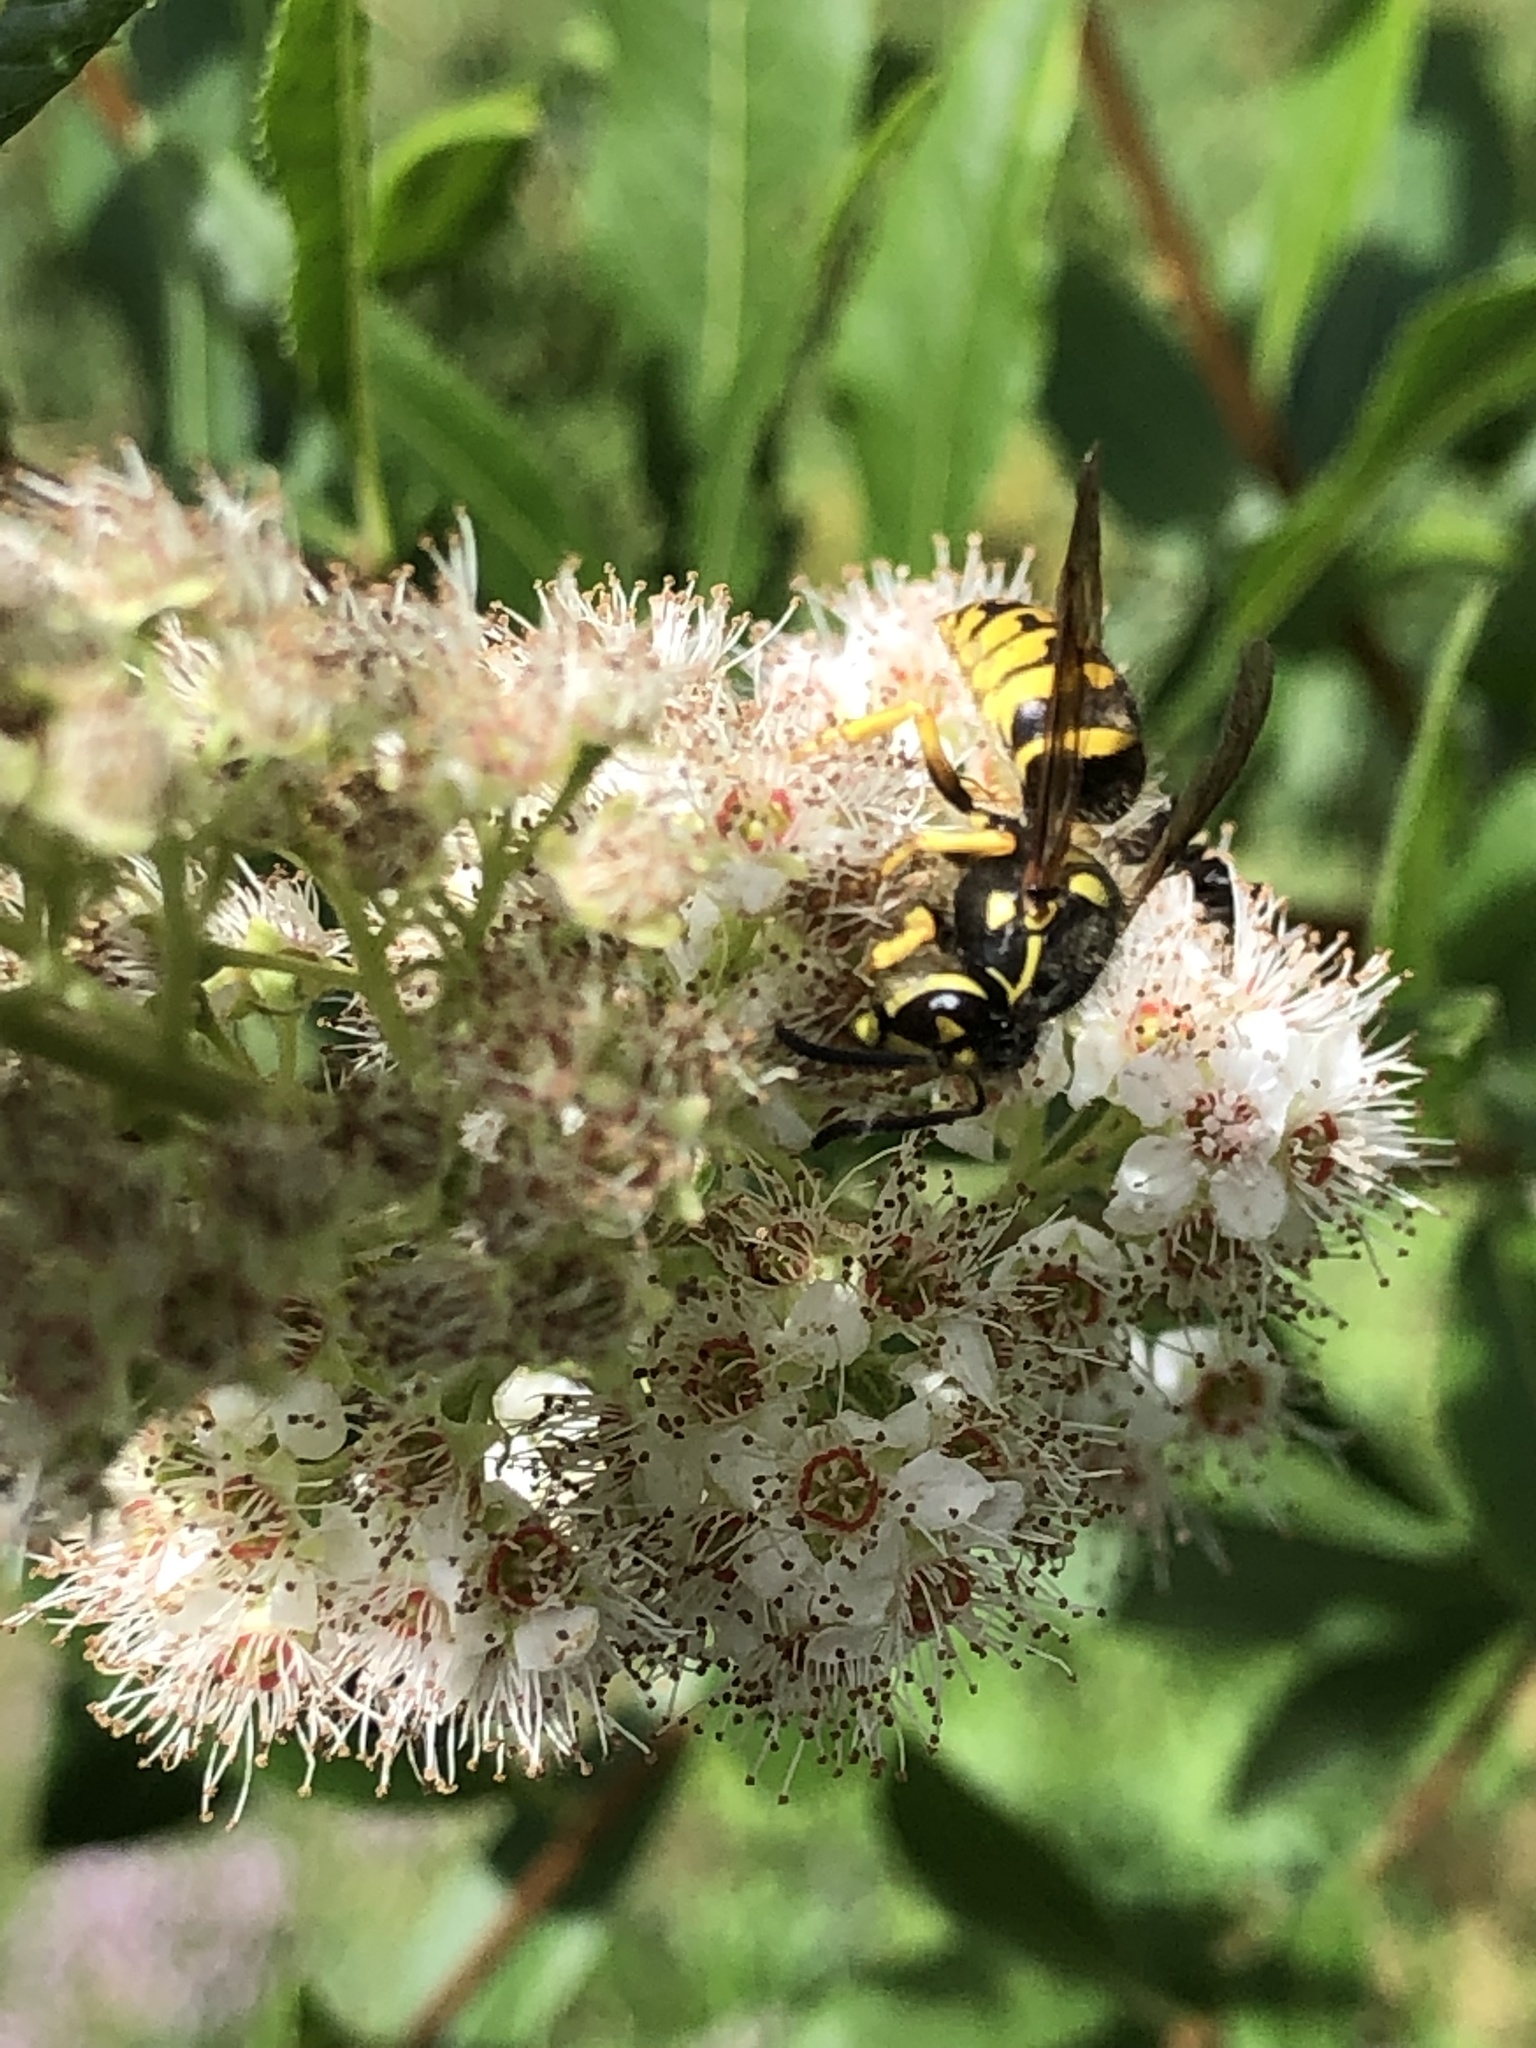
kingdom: Animalia
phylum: Arthropoda
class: Insecta
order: Hymenoptera
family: Vespidae
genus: Dolichovespula
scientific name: Dolichovespula arenaria
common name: Aerial yellowjacket
